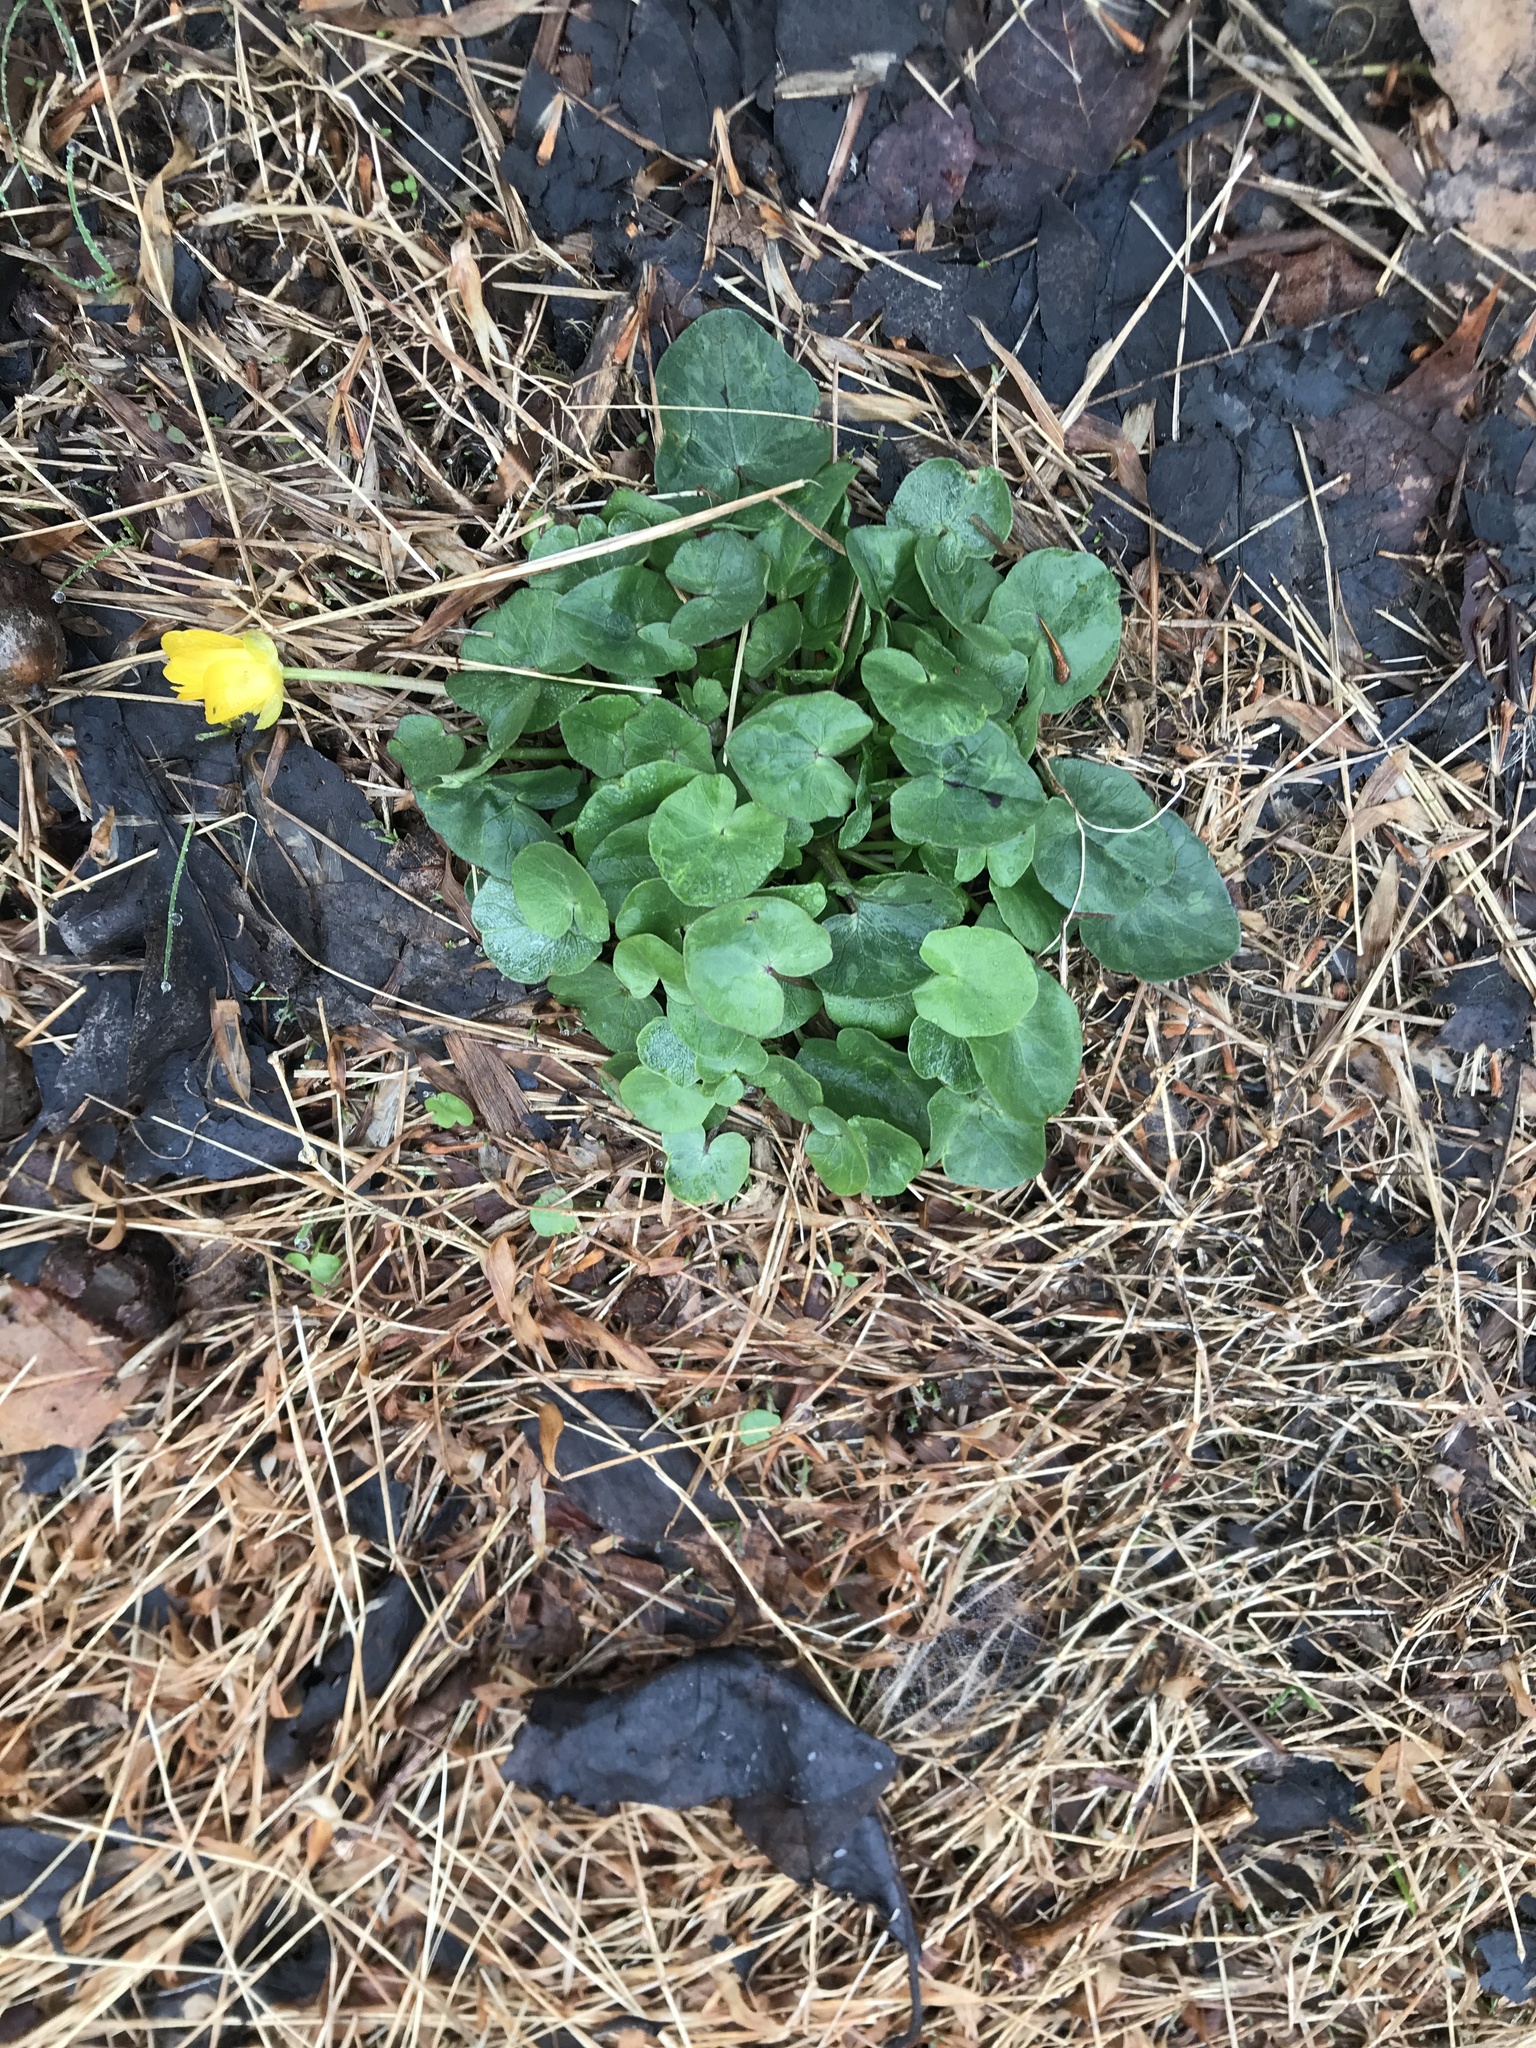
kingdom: Plantae
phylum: Tracheophyta
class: Magnoliopsida
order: Ranunculales
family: Ranunculaceae
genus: Ficaria
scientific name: Ficaria verna
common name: Lesser celandine
